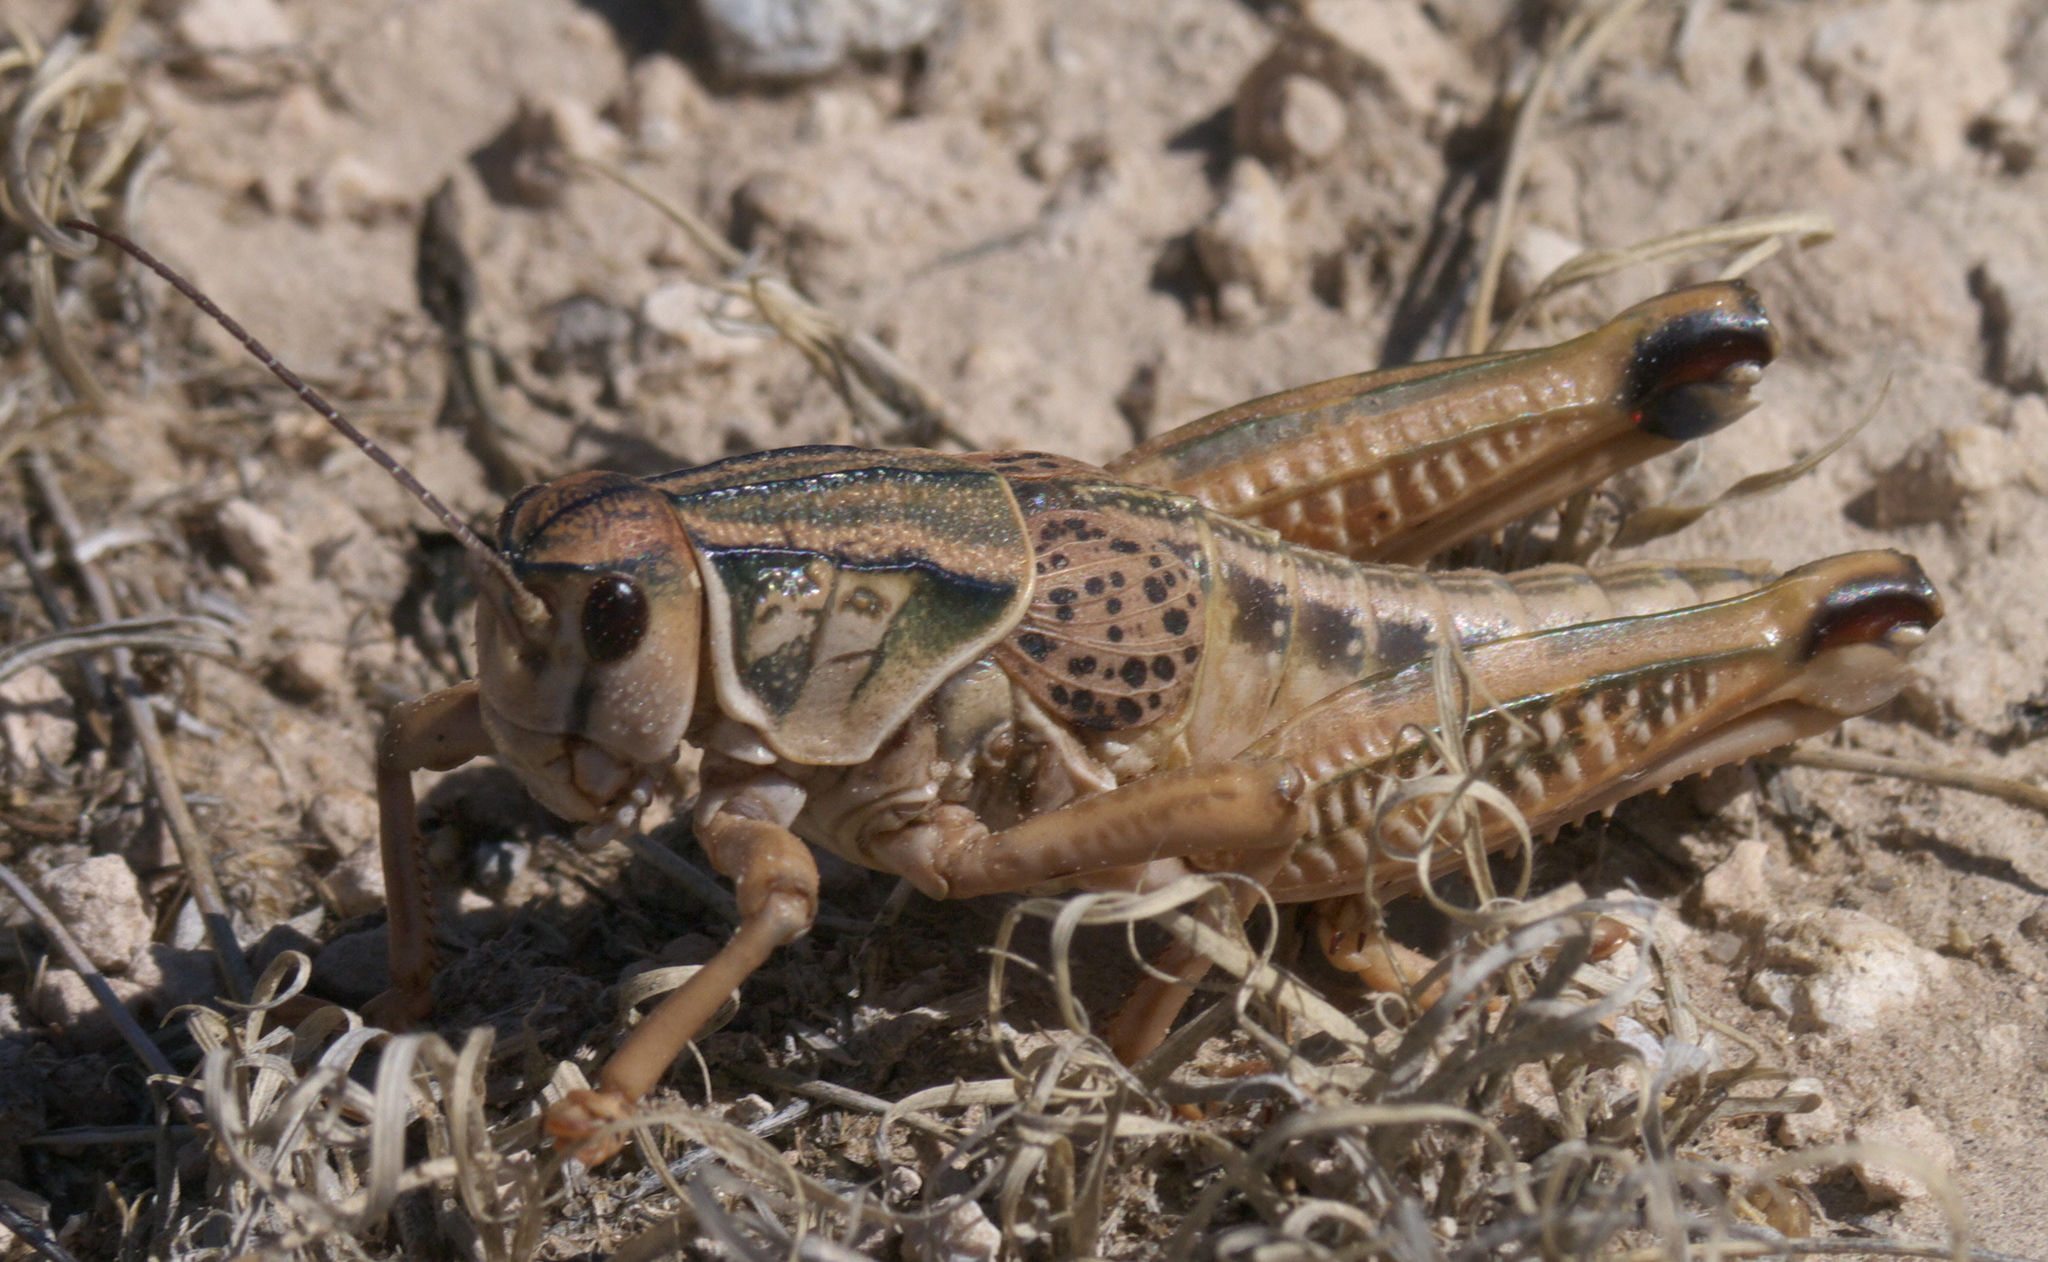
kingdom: Animalia
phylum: Arthropoda
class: Insecta
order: Orthoptera
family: Romaleidae
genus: Brachystola
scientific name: Brachystola magna
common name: Plains lubber grasshopper
